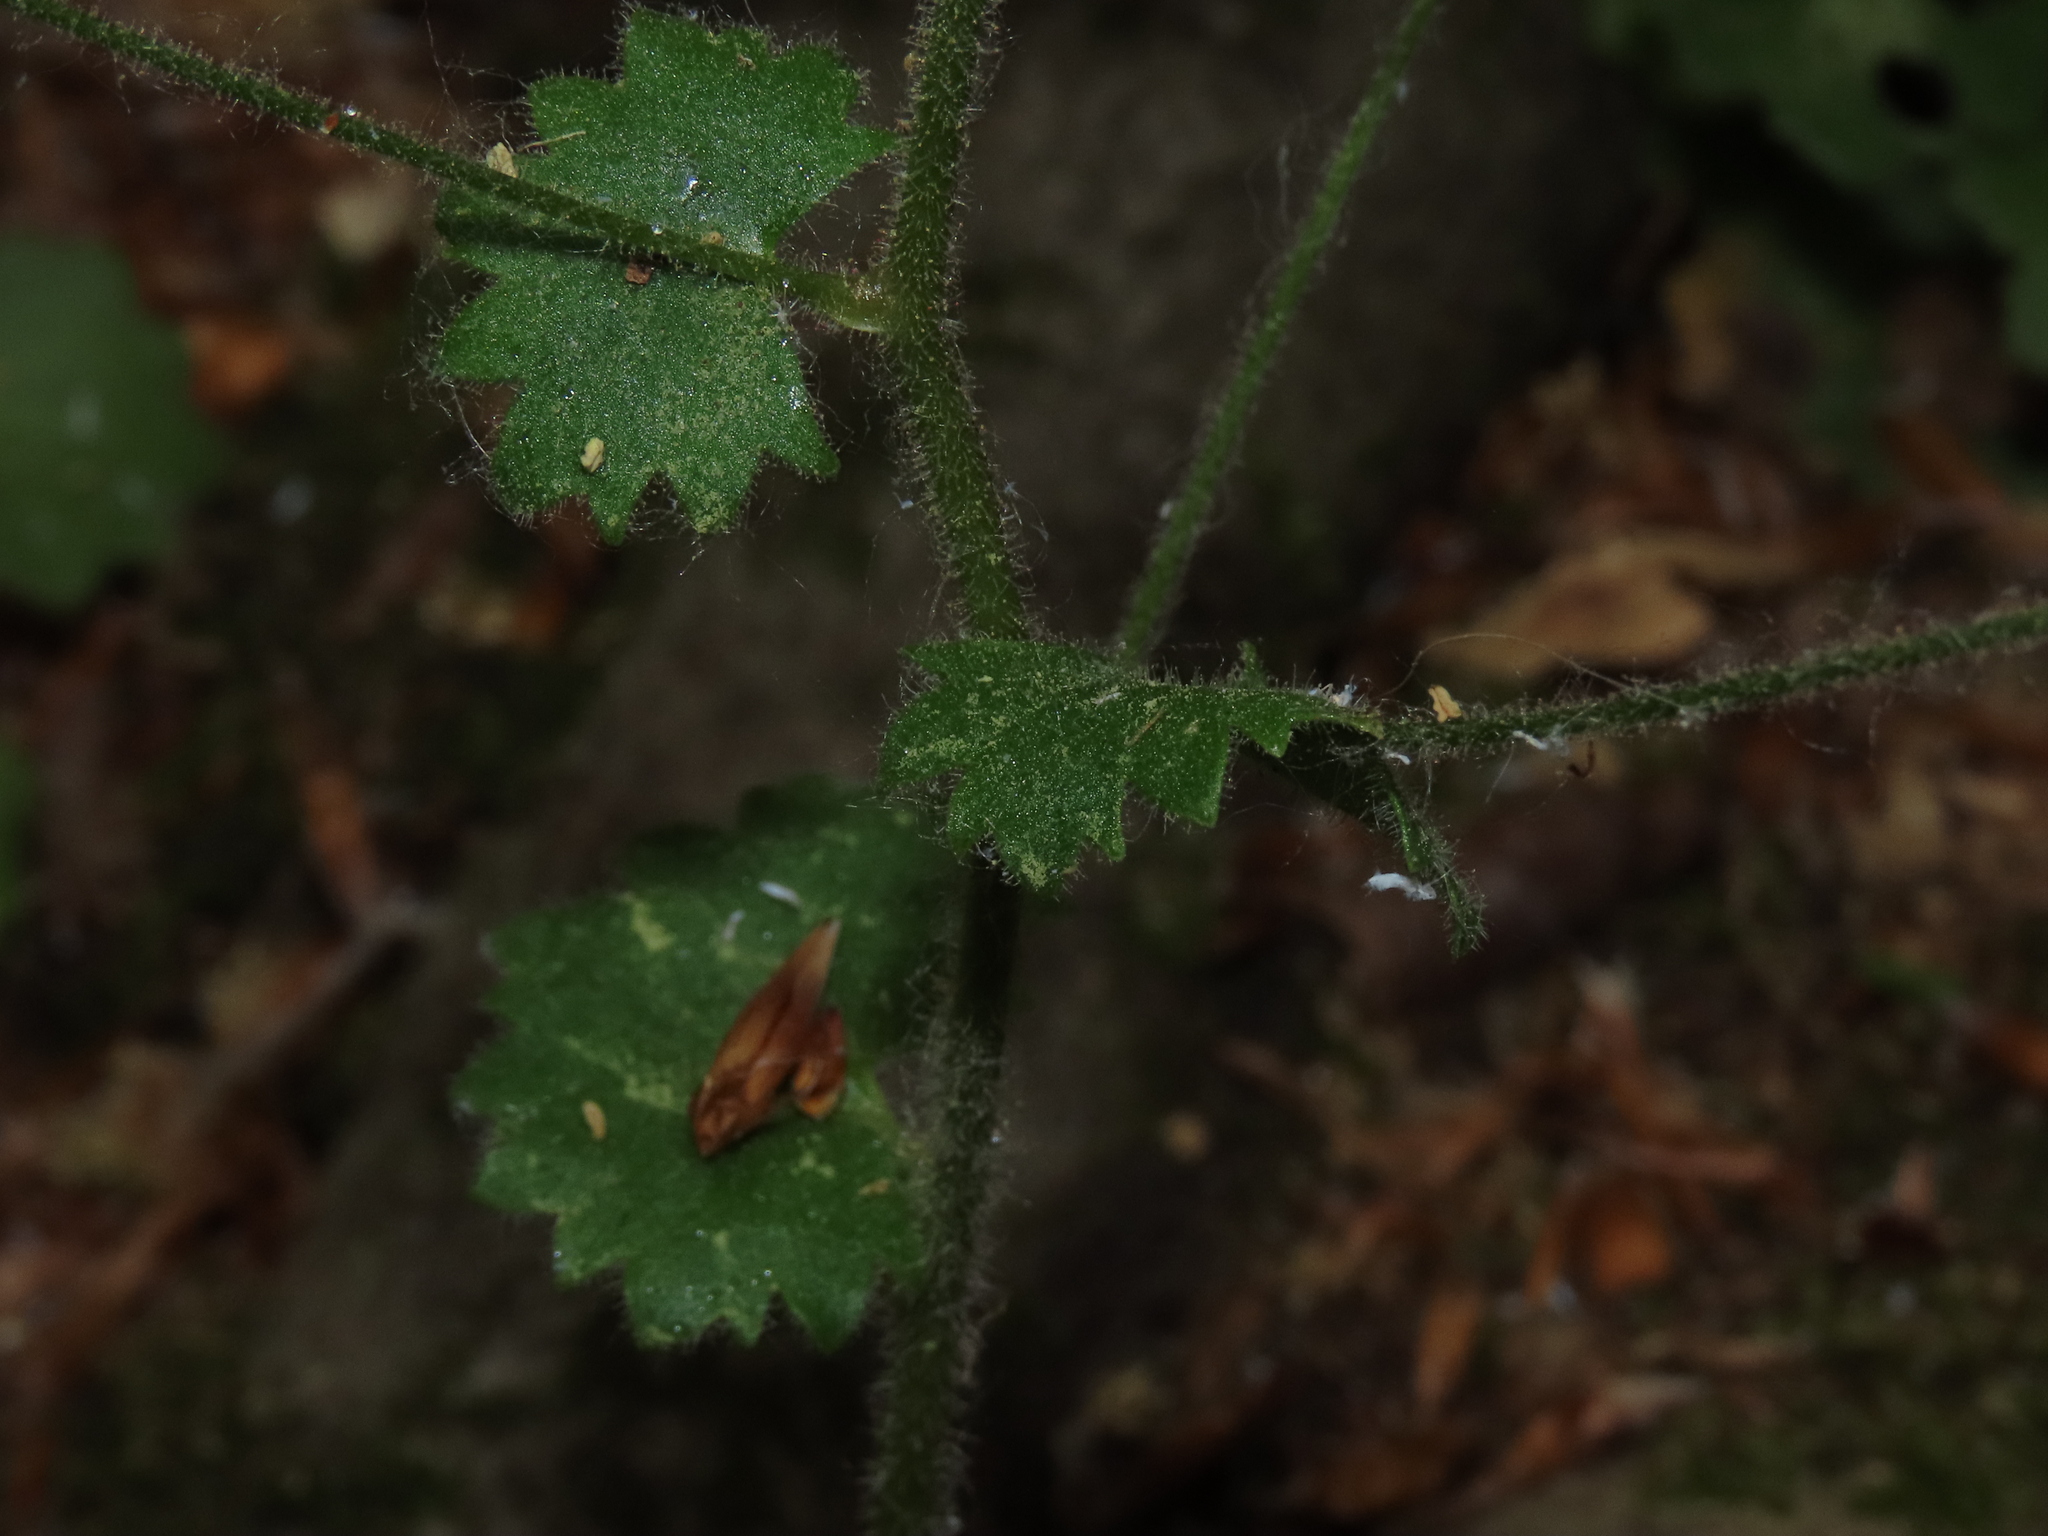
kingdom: Plantae
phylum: Tracheophyta
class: Magnoliopsida
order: Saxifragales
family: Saxifragaceae
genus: Saxifraga
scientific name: Saxifraga rotundifolia
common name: Round-leaved saxifrage
